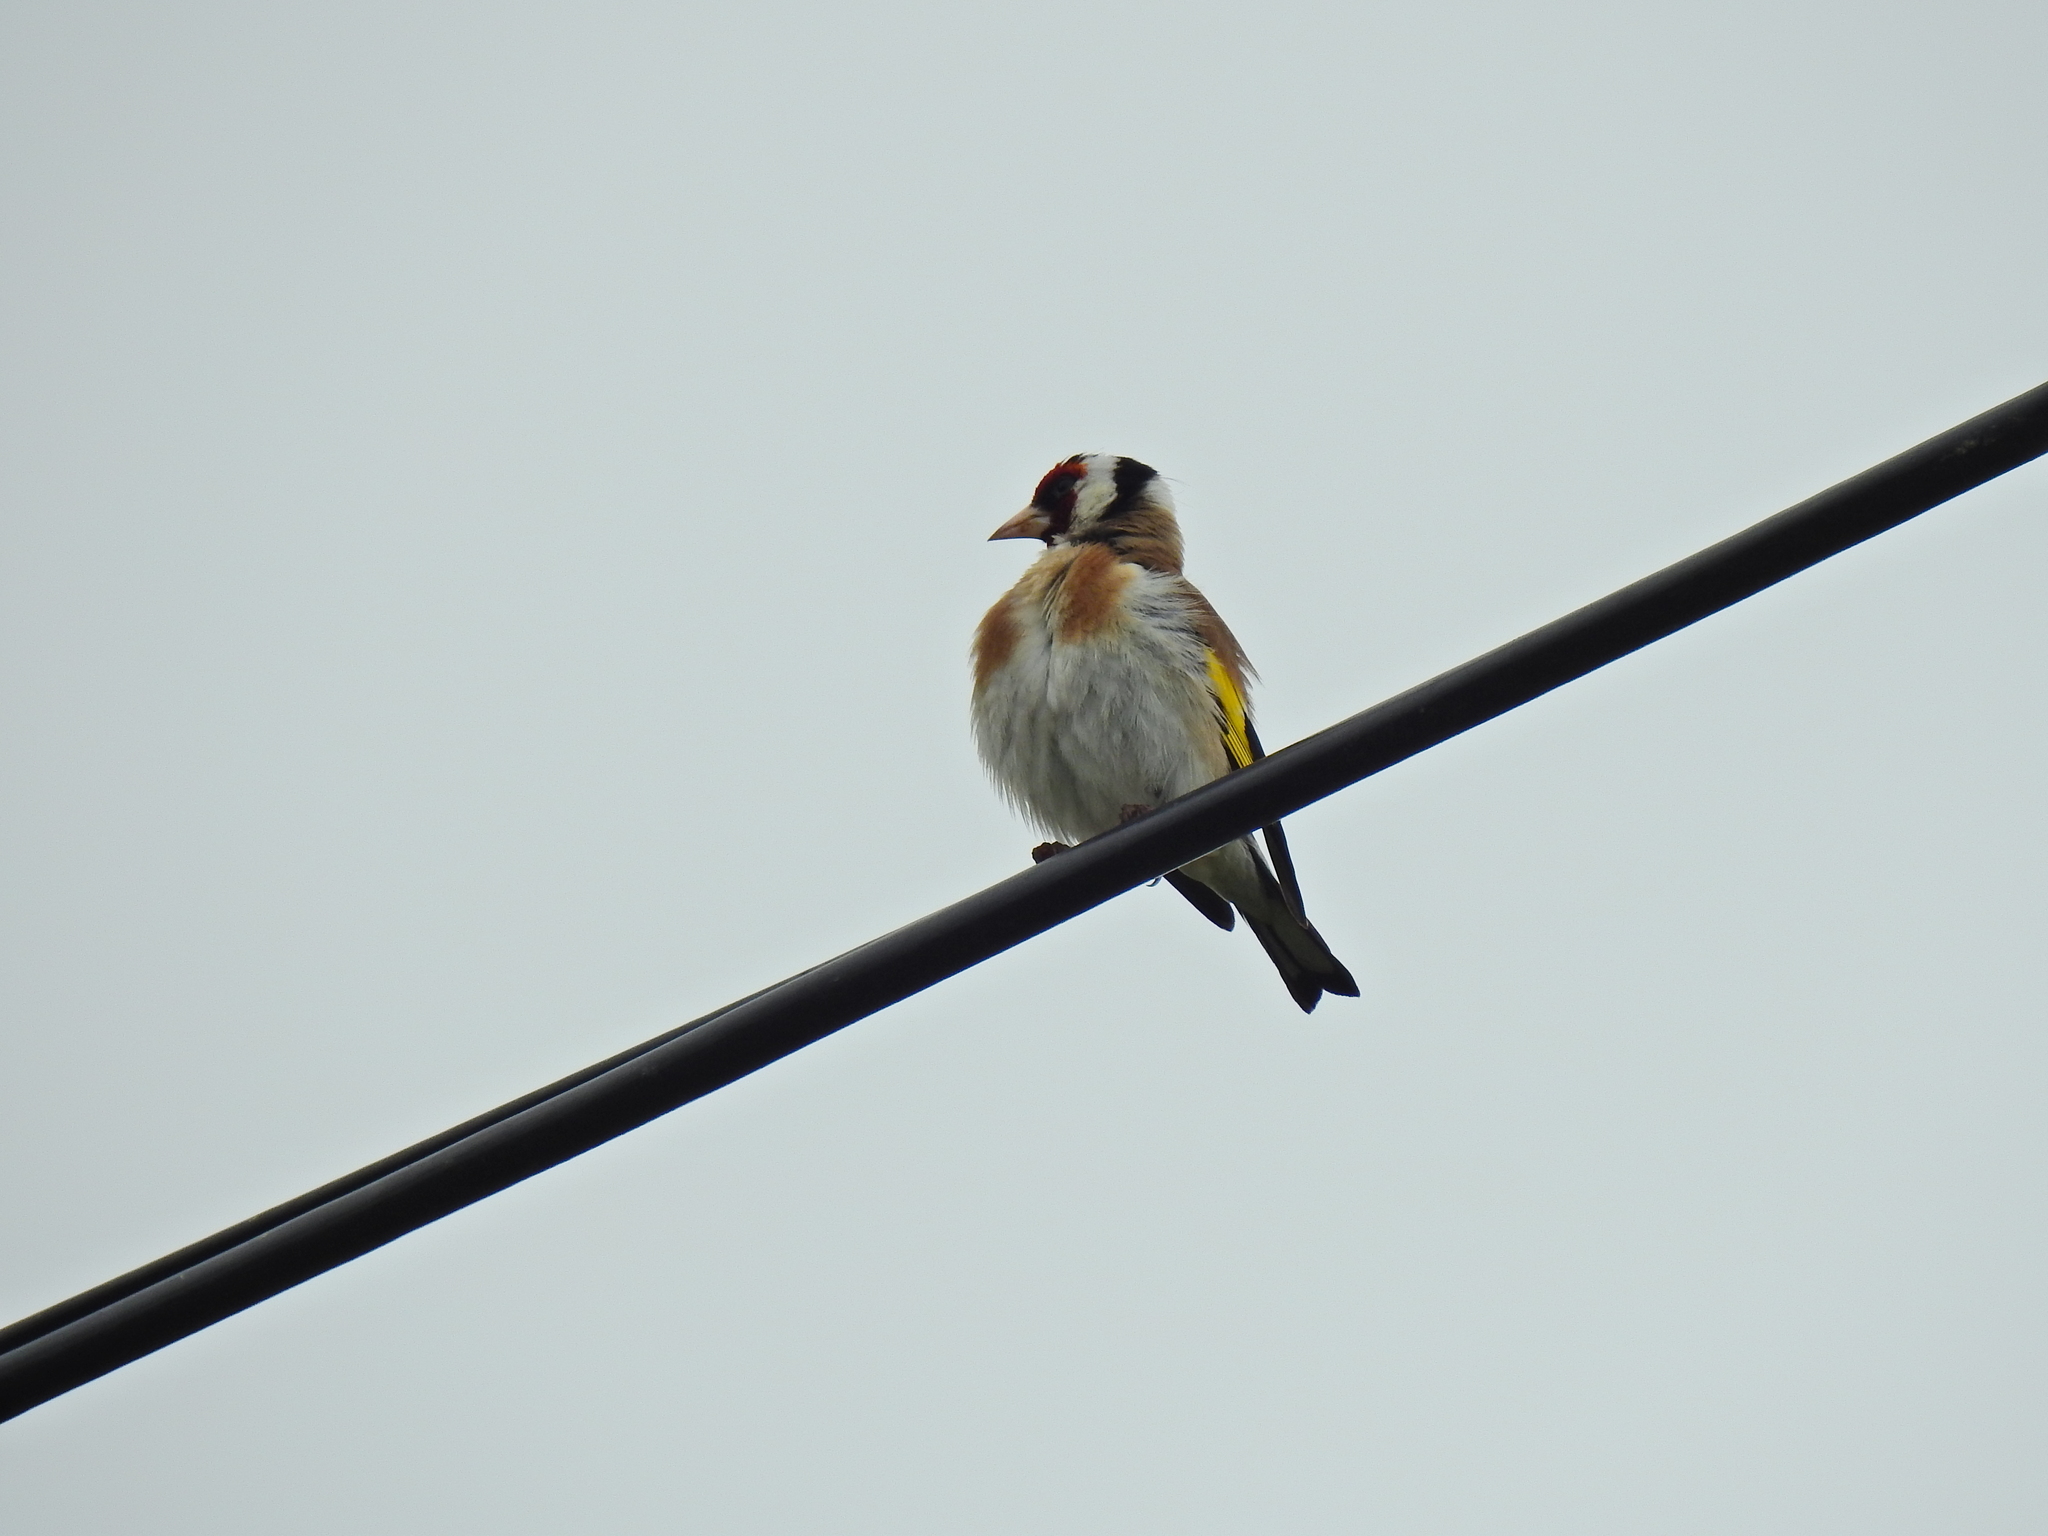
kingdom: Animalia
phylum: Chordata
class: Aves
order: Passeriformes
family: Fringillidae
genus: Carduelis
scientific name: Carduelis carduelis
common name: European goldfinch
